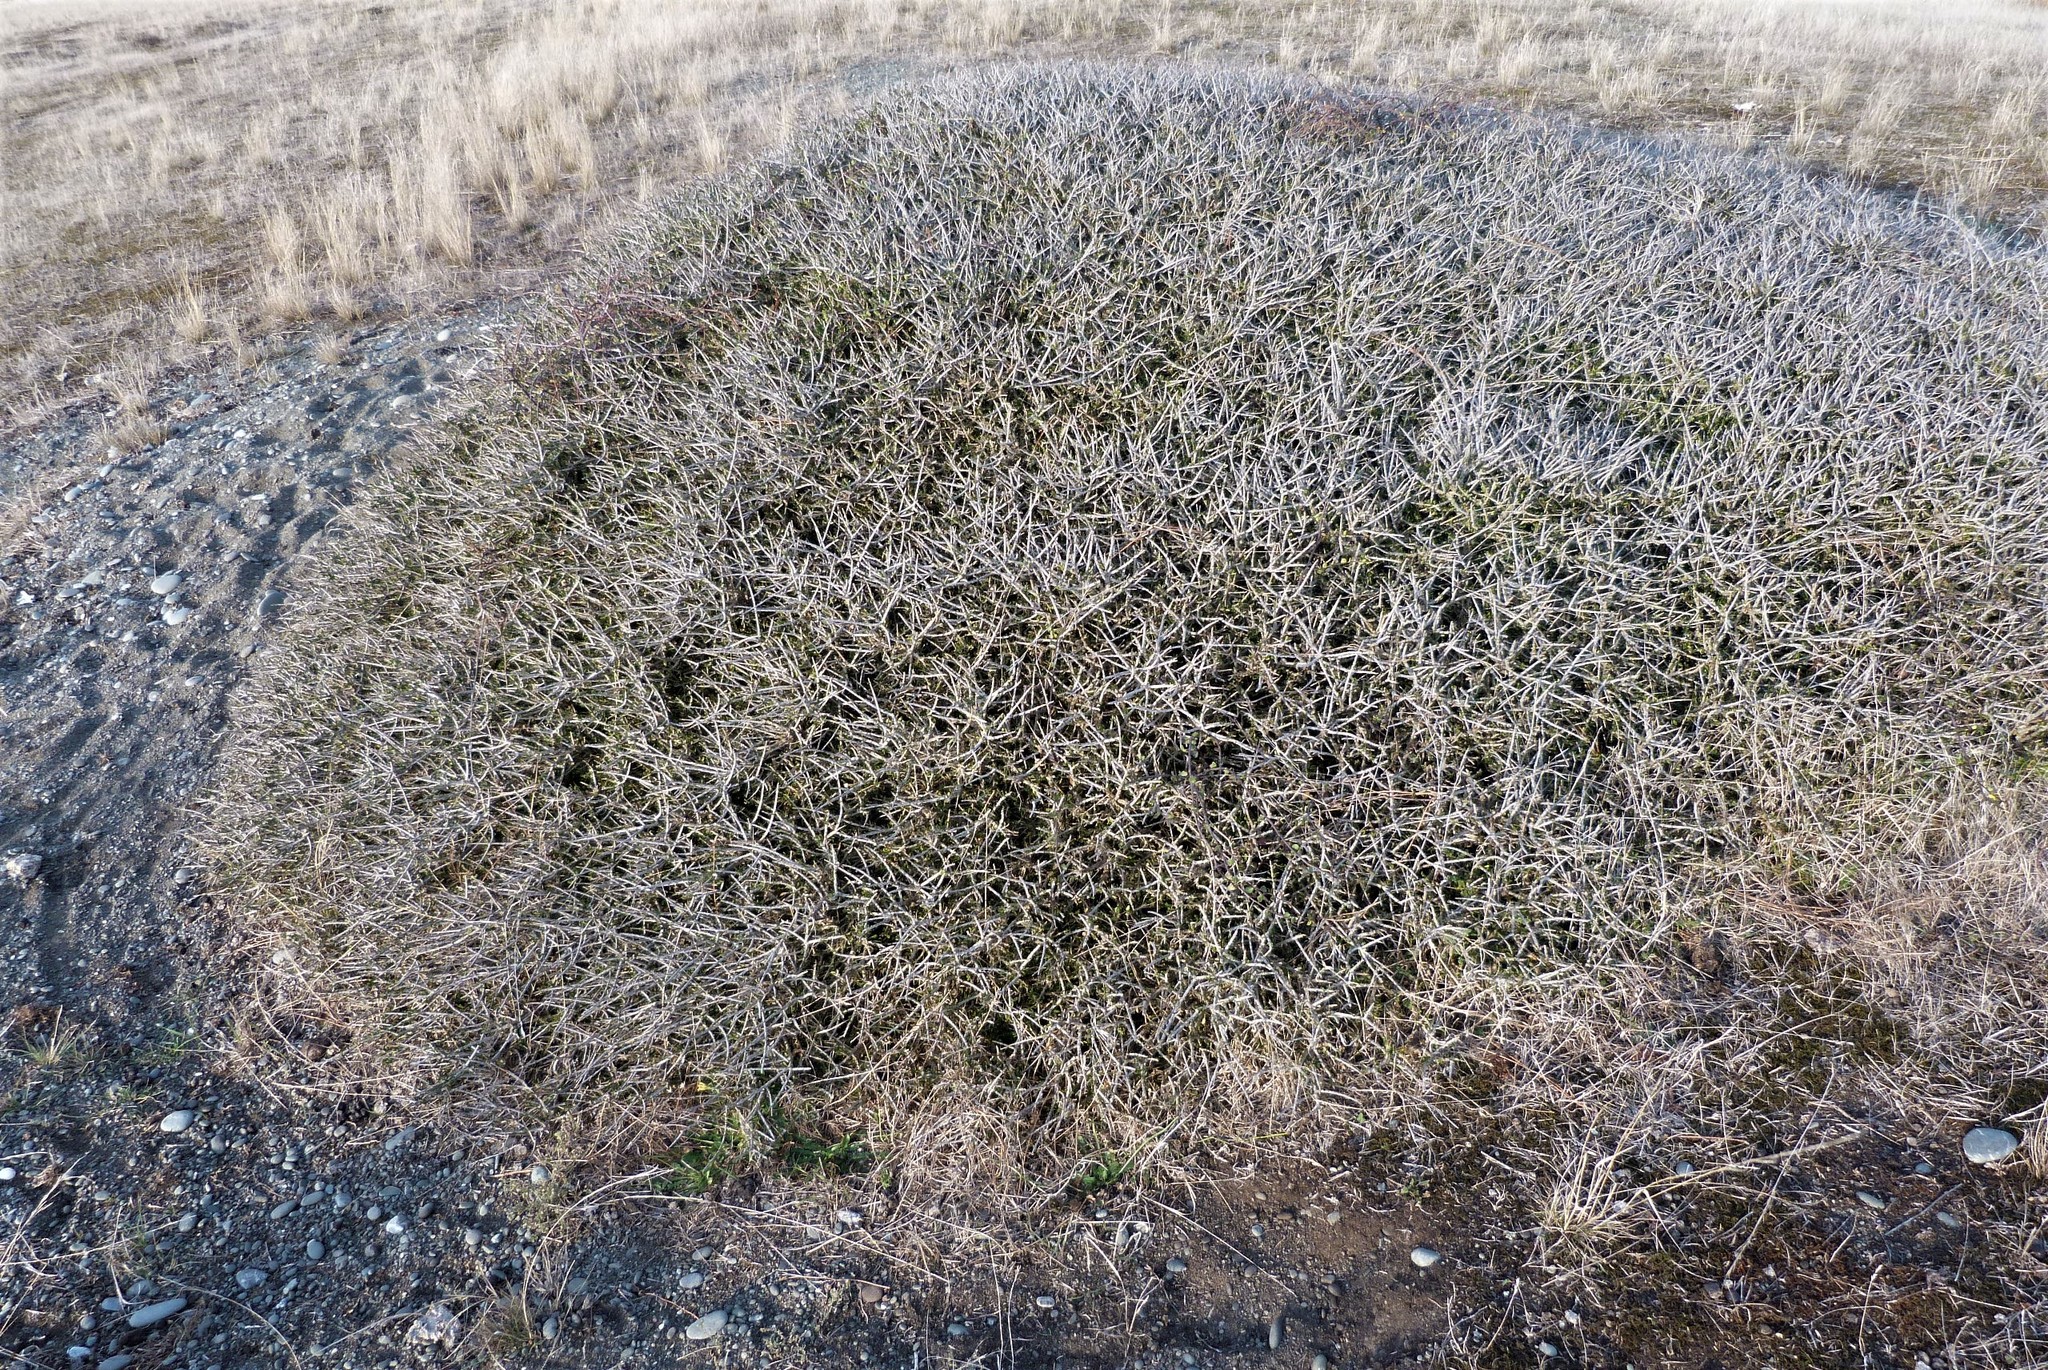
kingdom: Plantae
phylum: Tracheophyta
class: Magnoliopsida
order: Malpighiales
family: Violaceae
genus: Melicytus
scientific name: Melicytus alpinus
